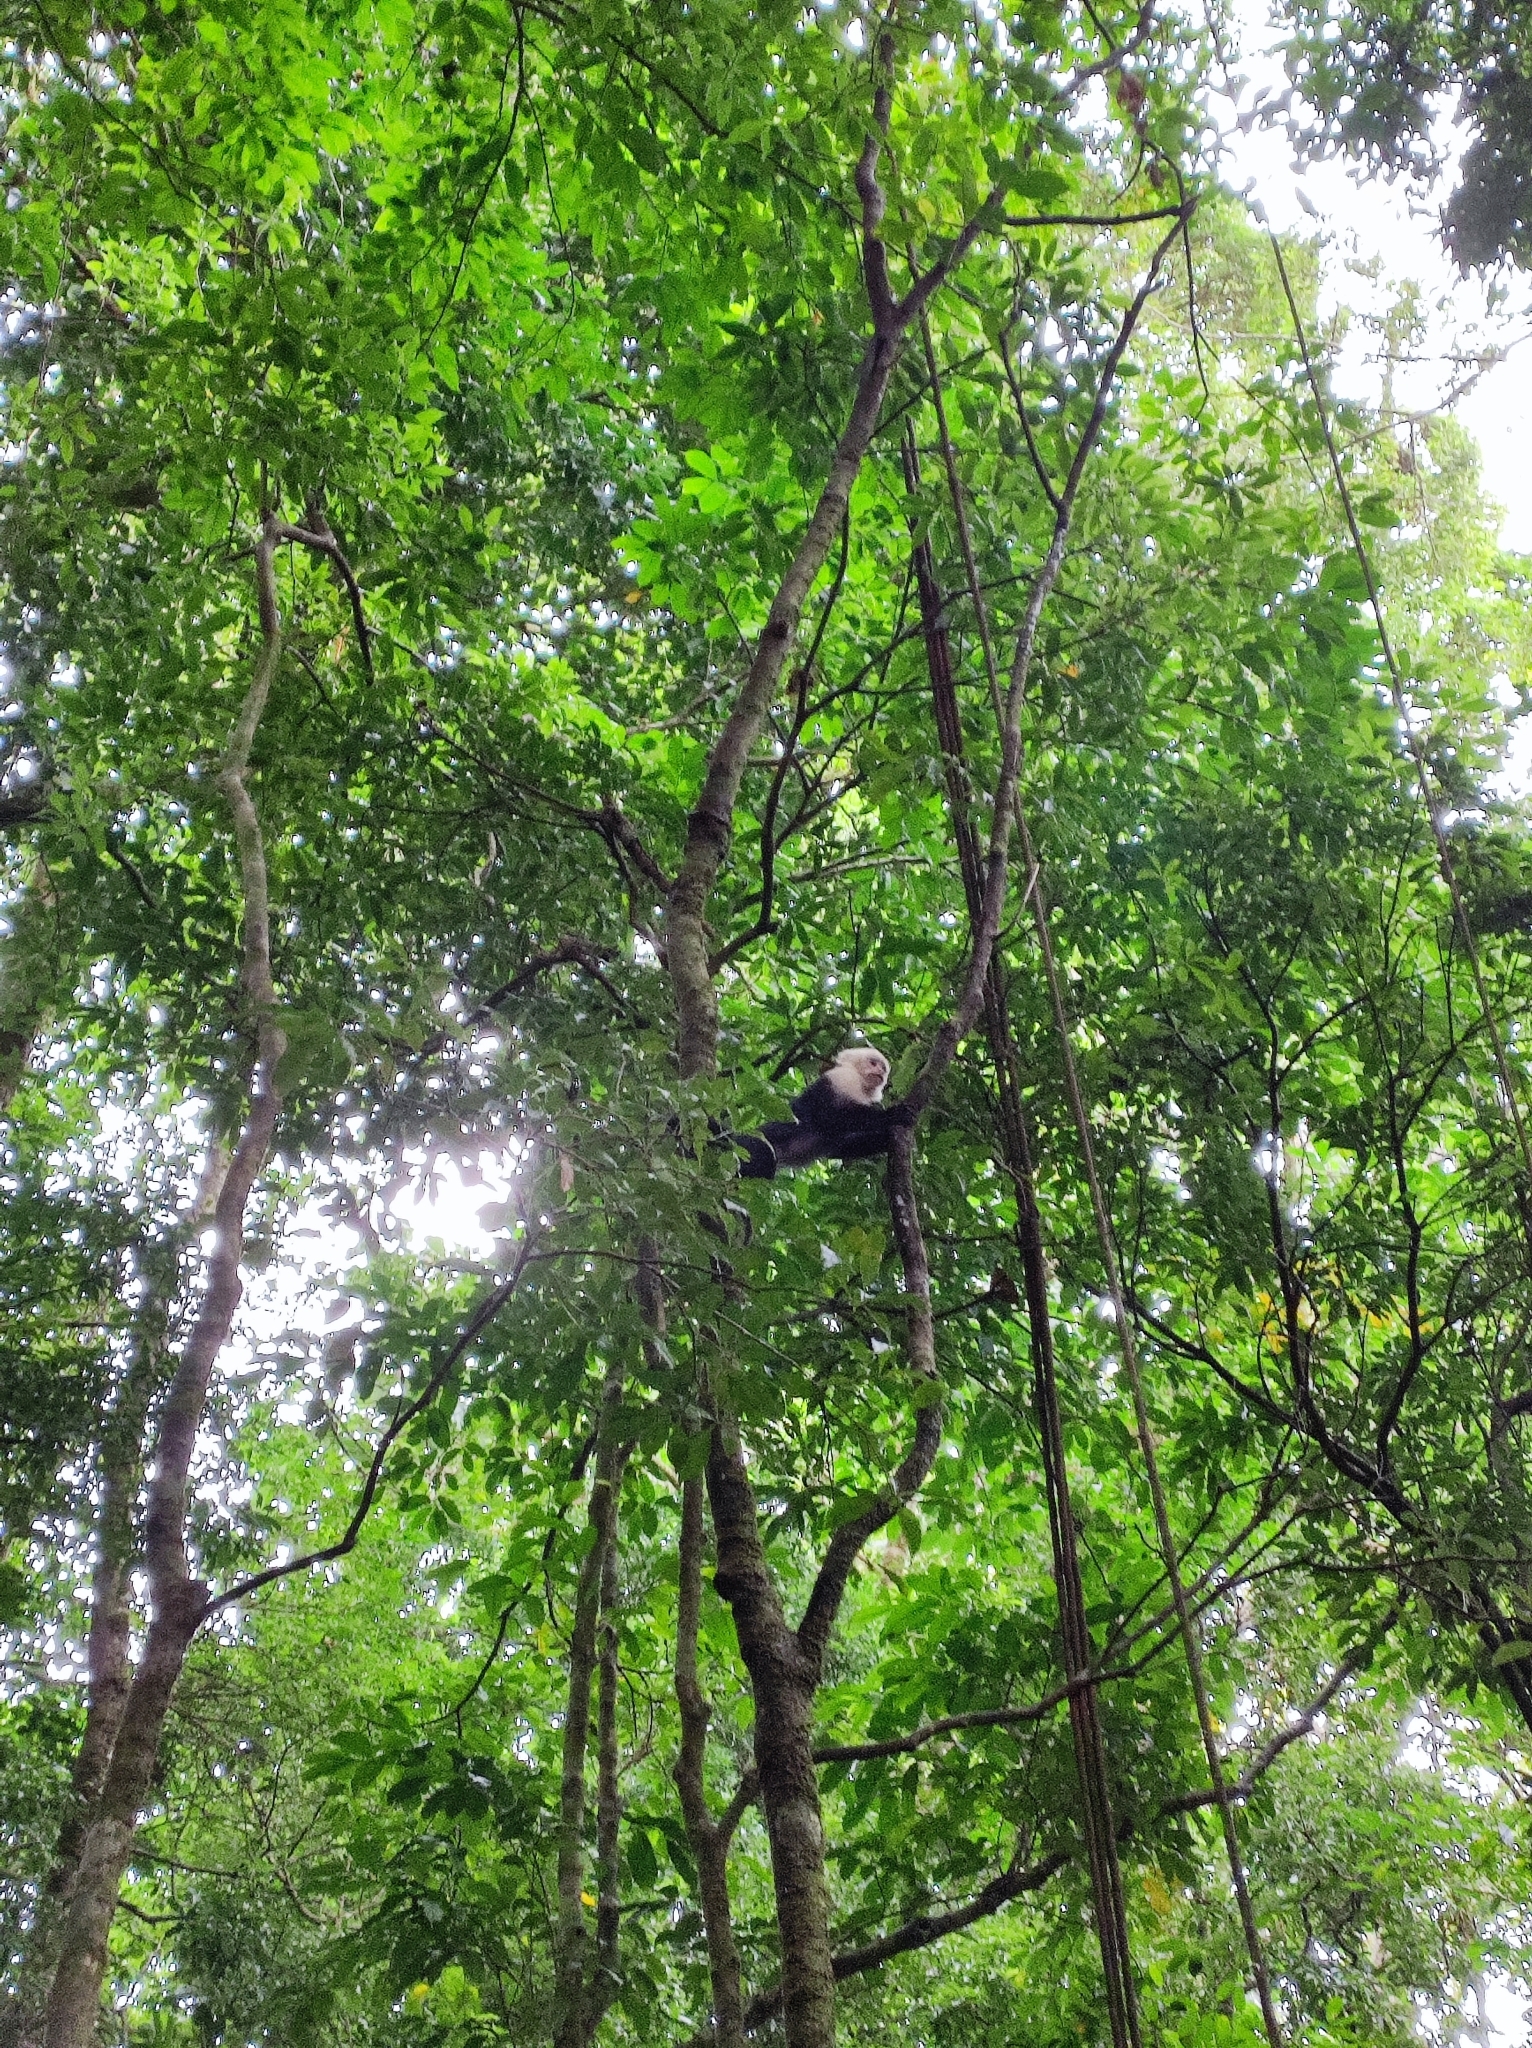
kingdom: Animalia
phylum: Chordata
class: Mammalia
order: Primates
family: Cebidae
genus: Cebus
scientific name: Cebus imitator
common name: Panamanian white-faced capuchin
